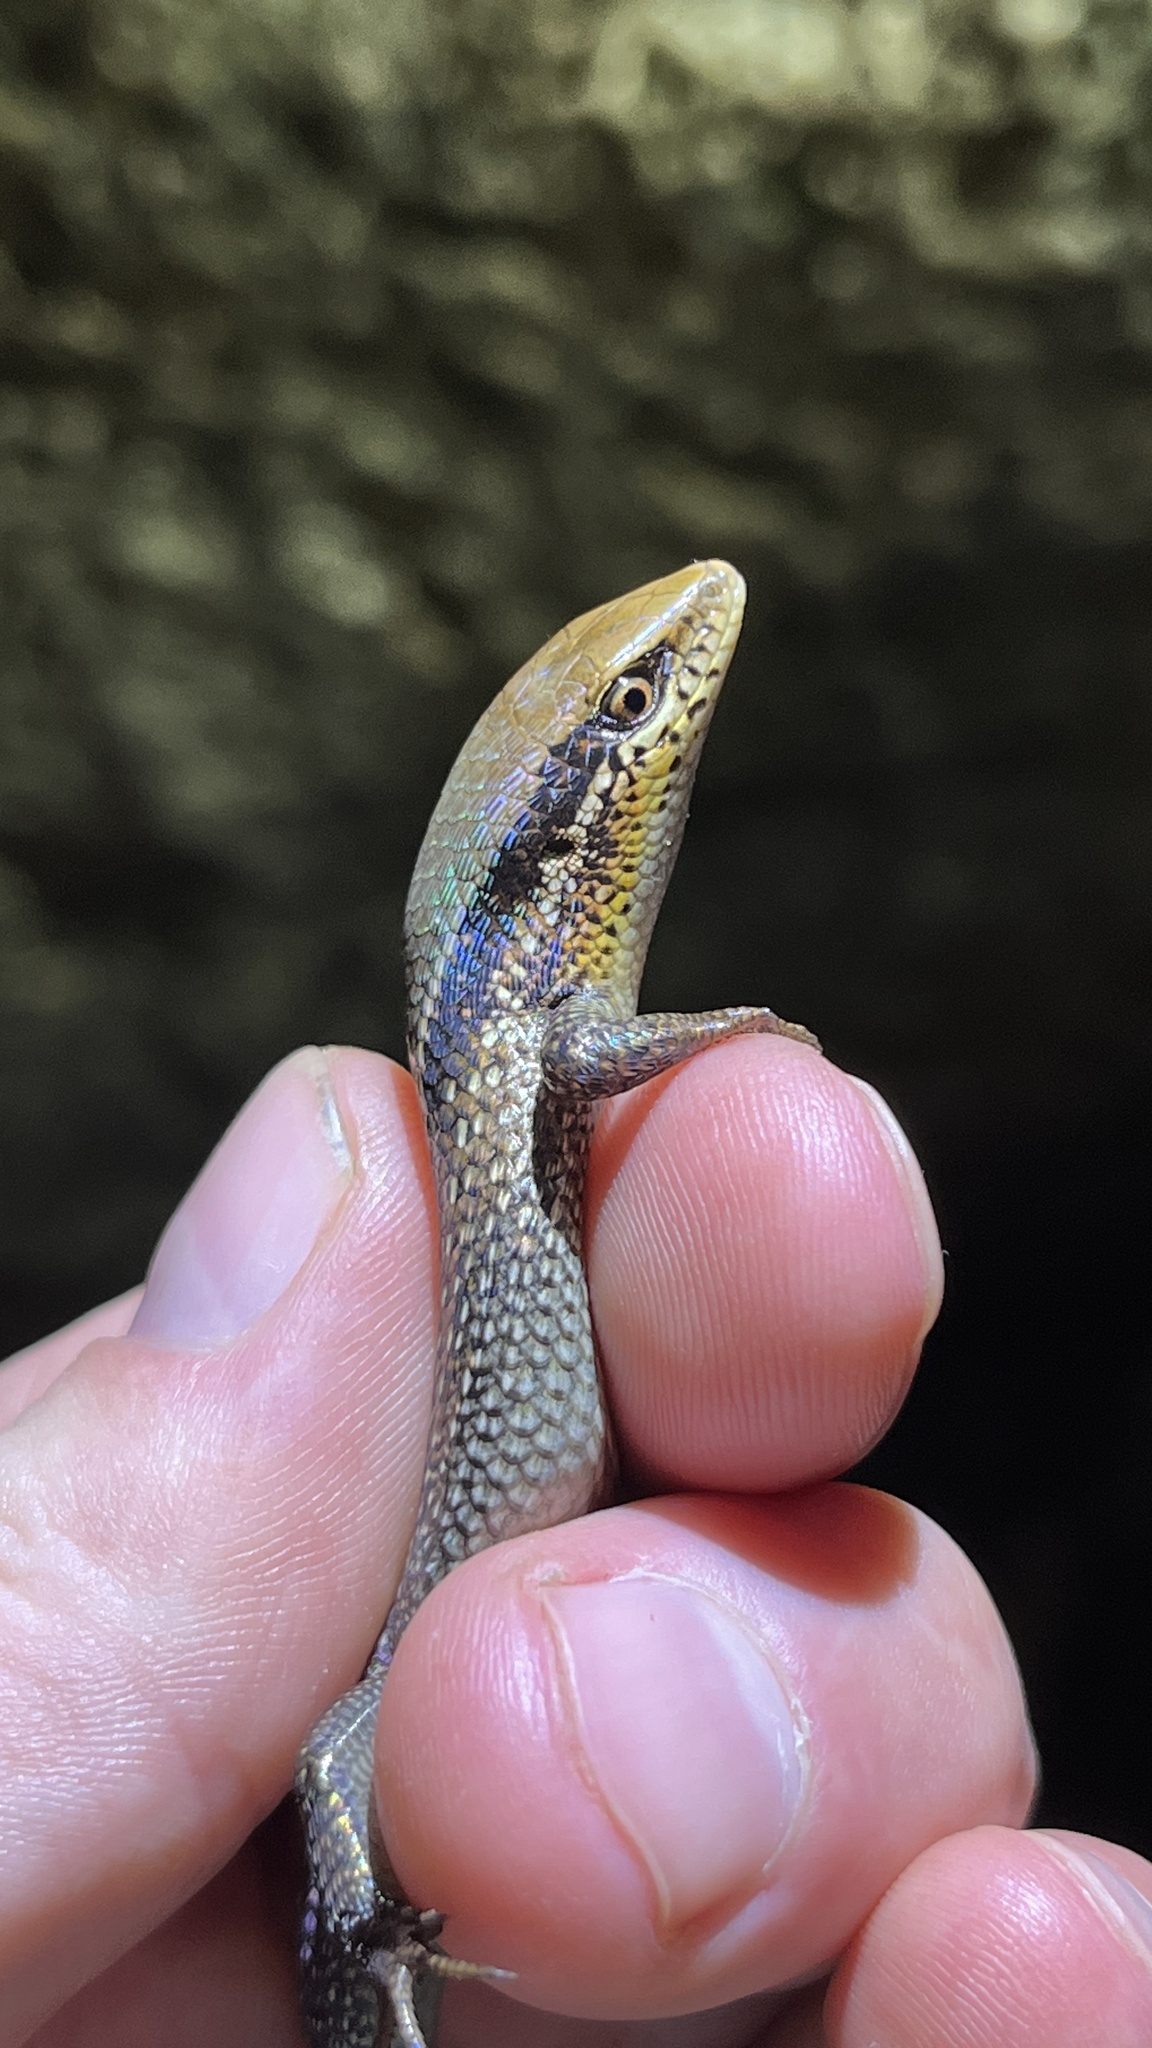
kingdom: Animalia
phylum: Chordata
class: Squamata
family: Scincidae
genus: Eutropis
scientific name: Eutropis macularia
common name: Bronze mabuya
